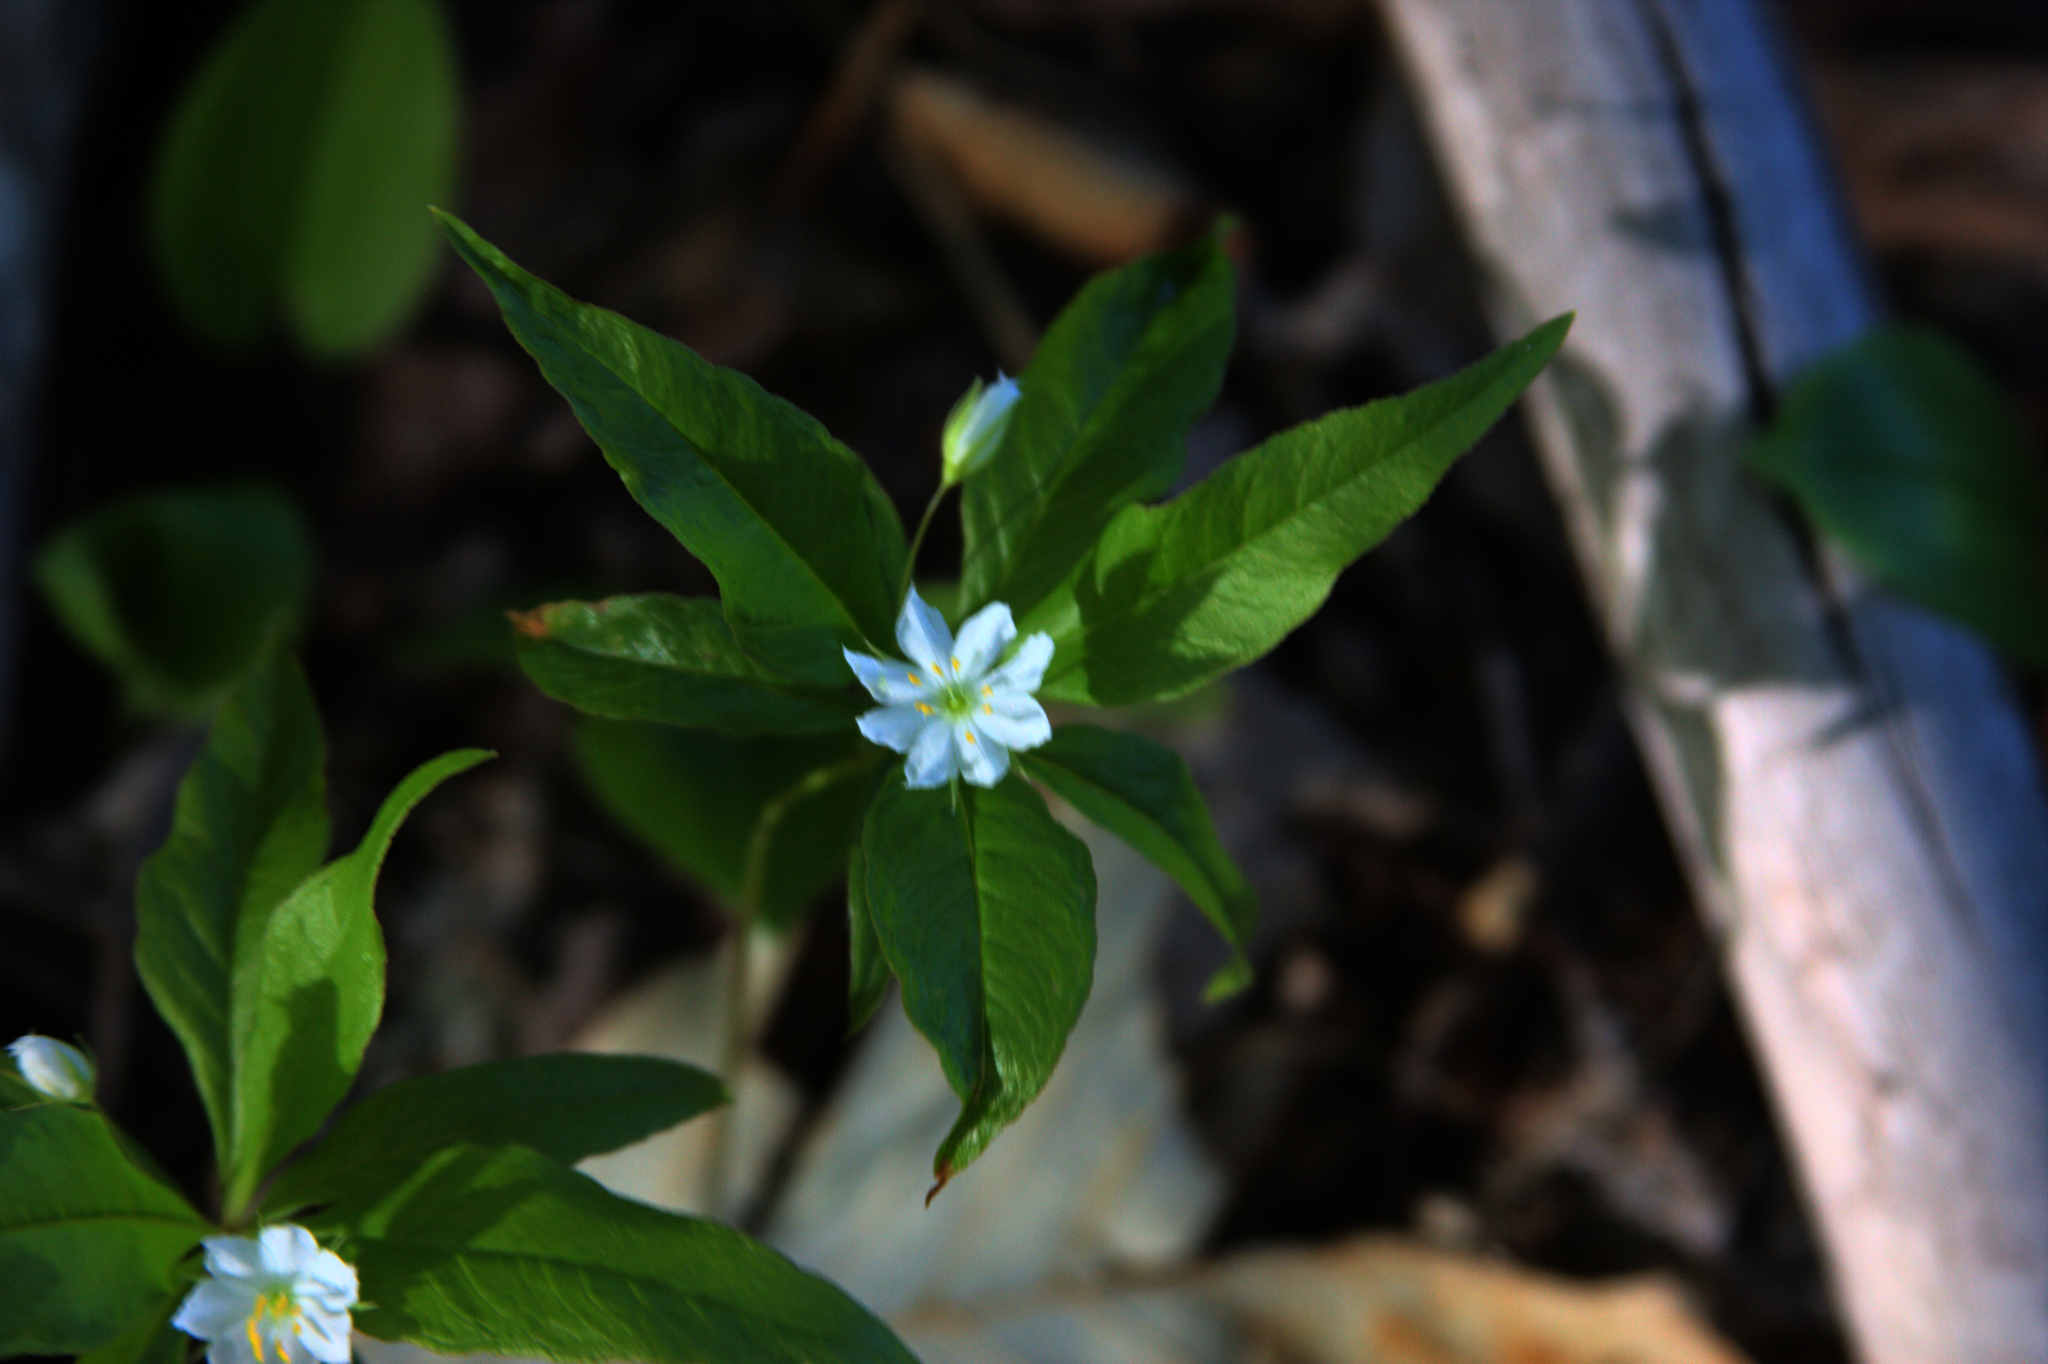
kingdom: Plantae
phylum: Tracheophyta
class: Magnoliopsida
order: Ericales
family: Primulaceae
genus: Lysimachia
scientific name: Lysimachia borealis
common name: American starflower
